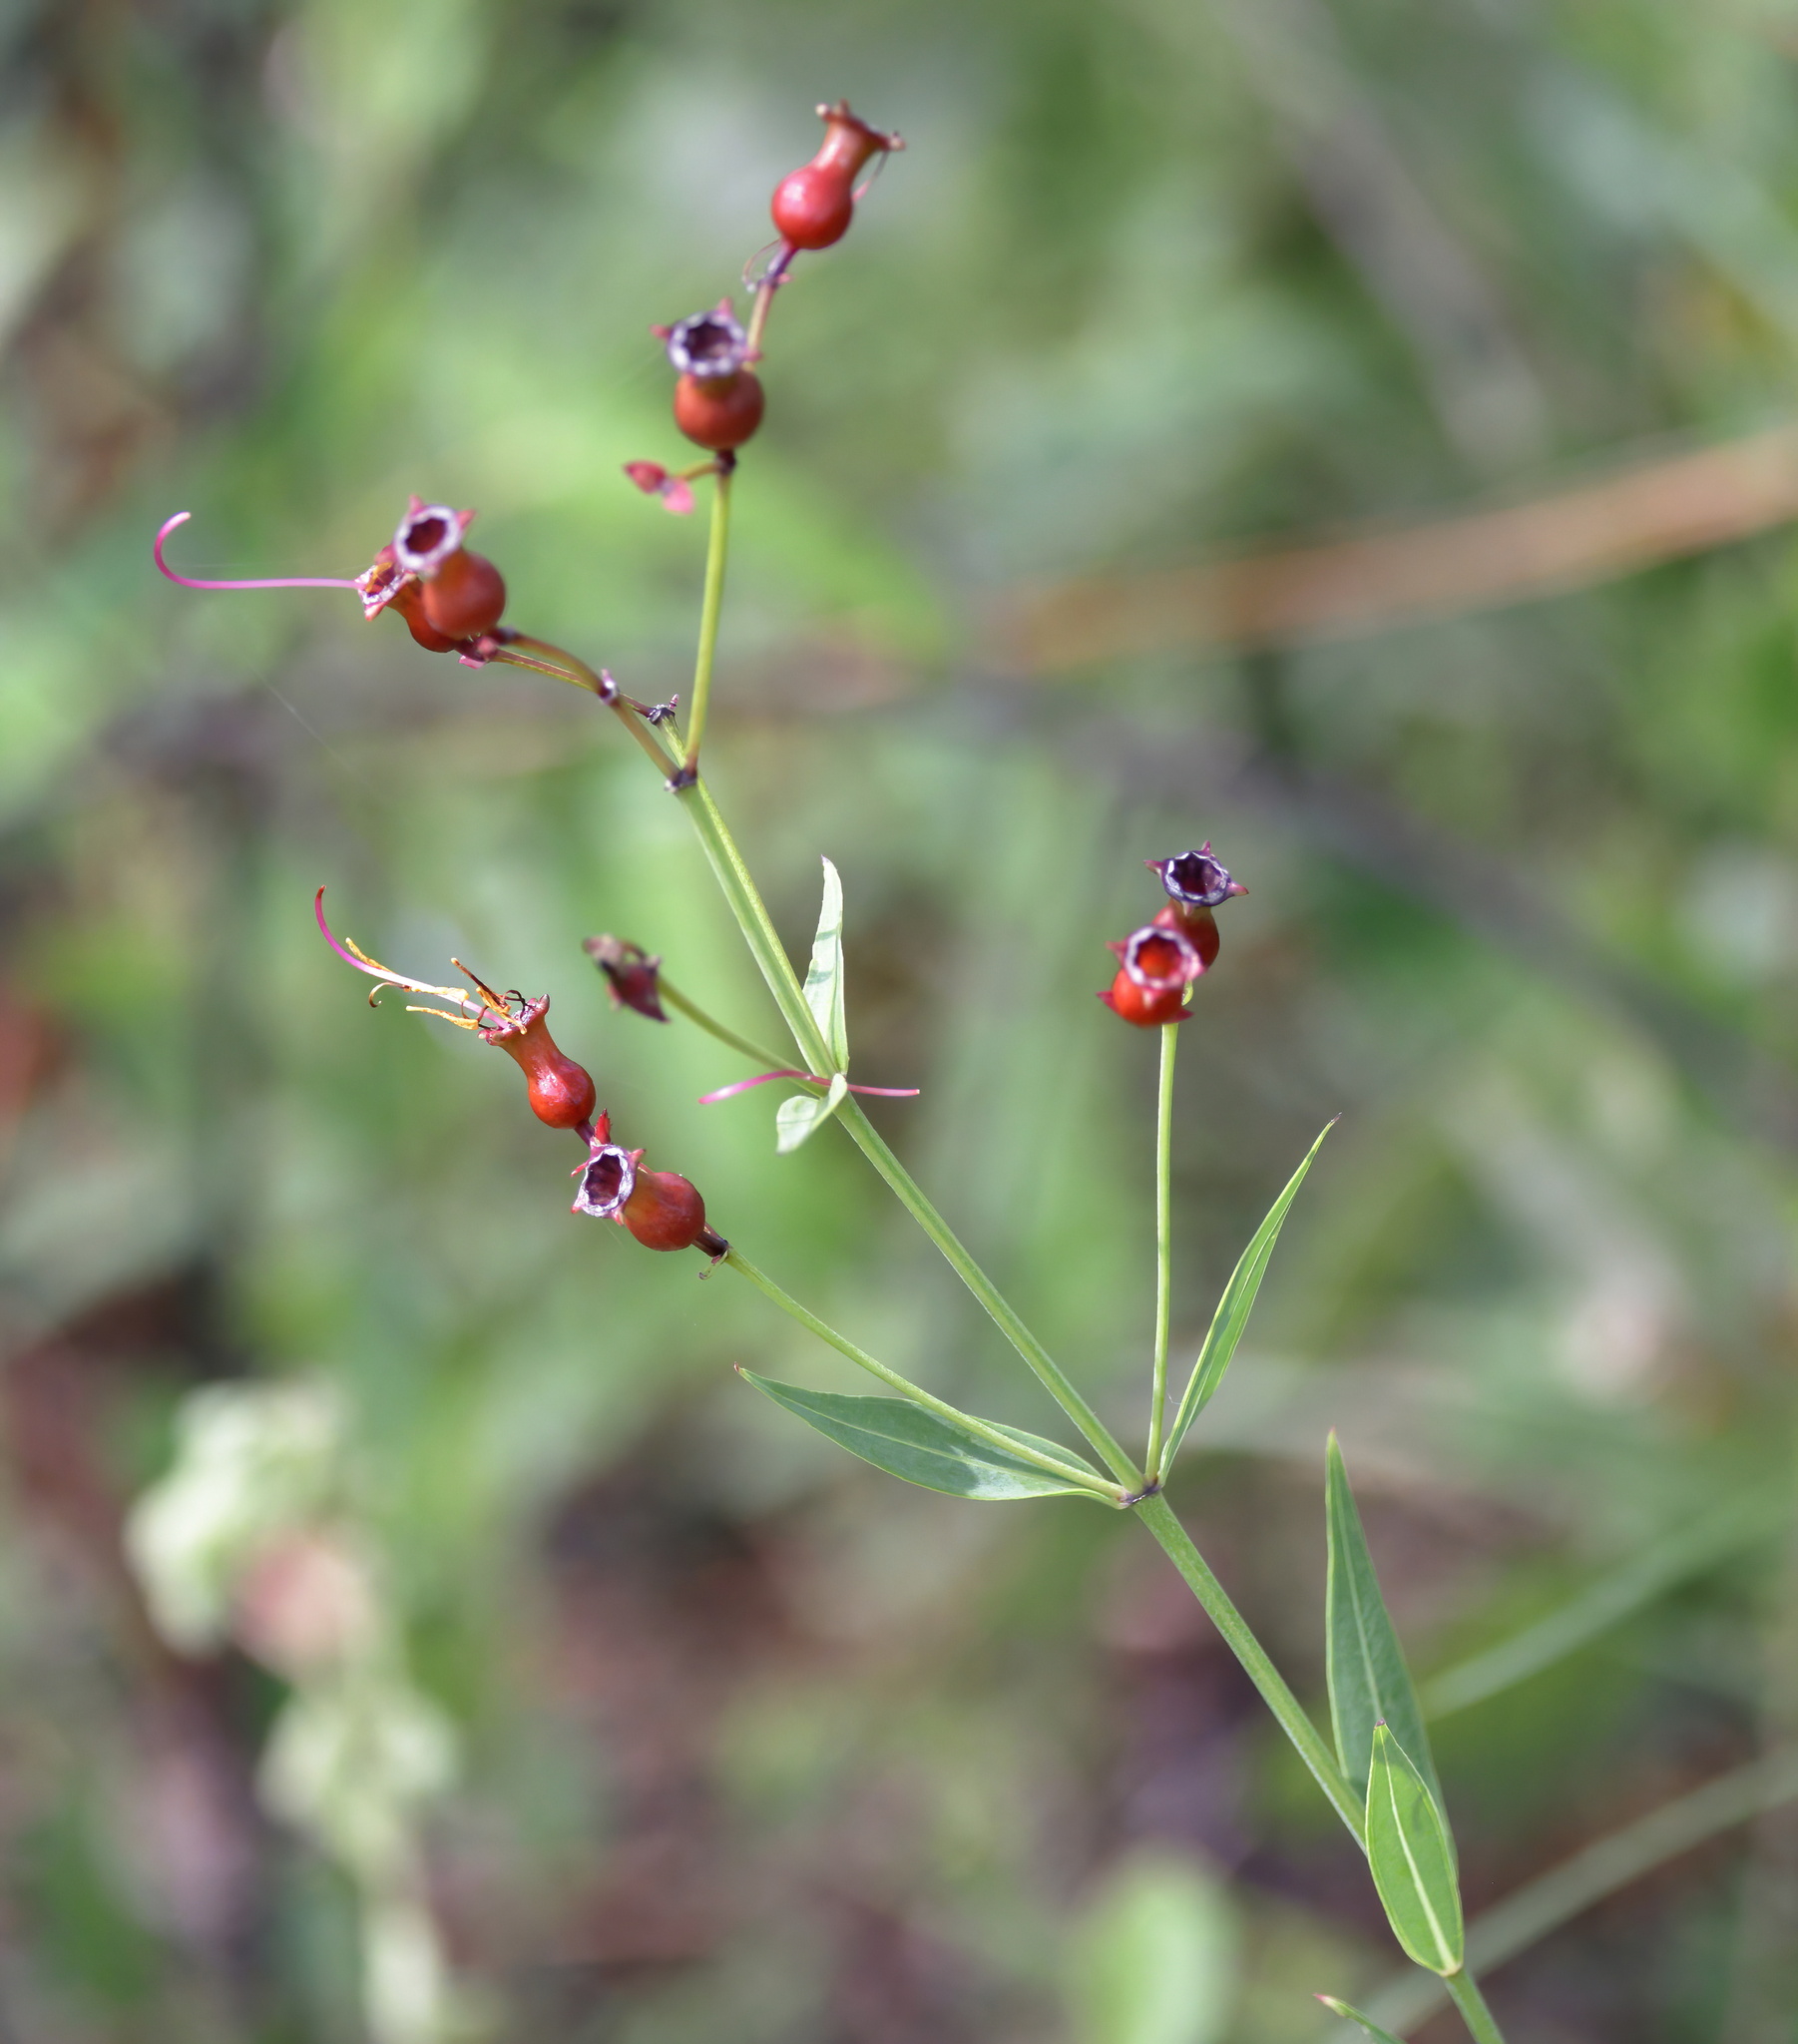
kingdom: Plantae
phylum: Tracheophyta
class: Magnoliopsida
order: Myrtales
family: Melastomataceae
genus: Rhexia
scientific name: Rhexia alifanus
